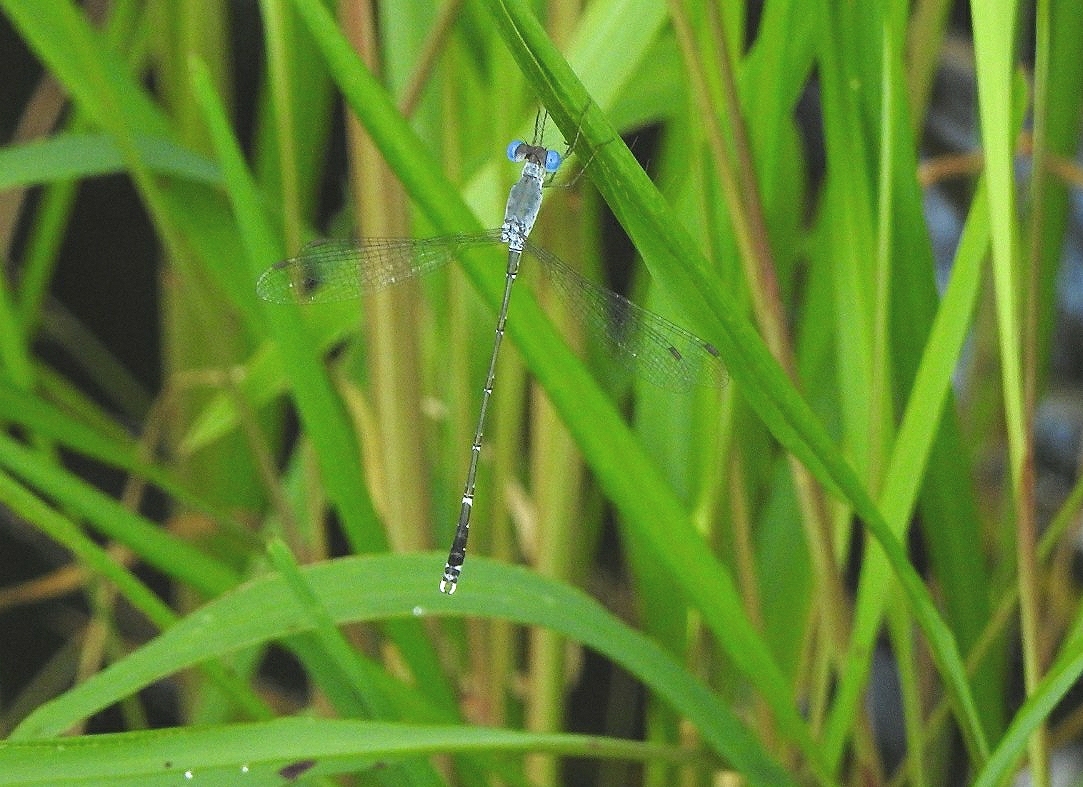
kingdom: Animalia
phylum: Arthropoda
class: Insecta
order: Odonata
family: Lestidae
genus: Lestes
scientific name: Lestes praemorsus
